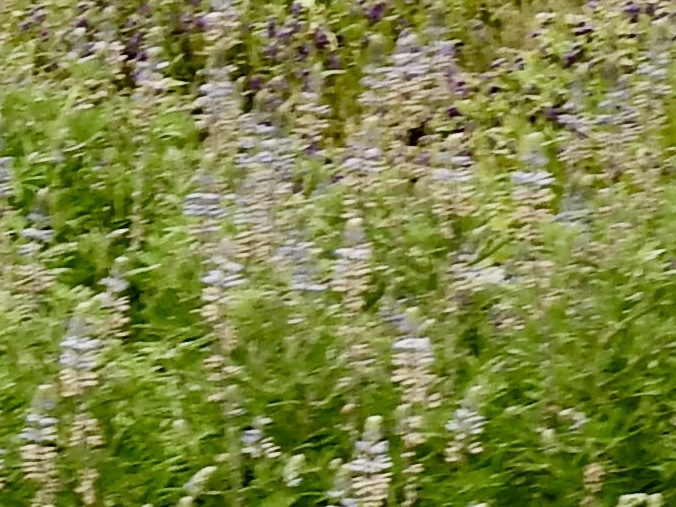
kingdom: Plantae
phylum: Tracheophyta
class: Magnoliopsida
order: Fabales
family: Fabaceae
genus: Lupinus
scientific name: Lupinus sierrae-blancae
